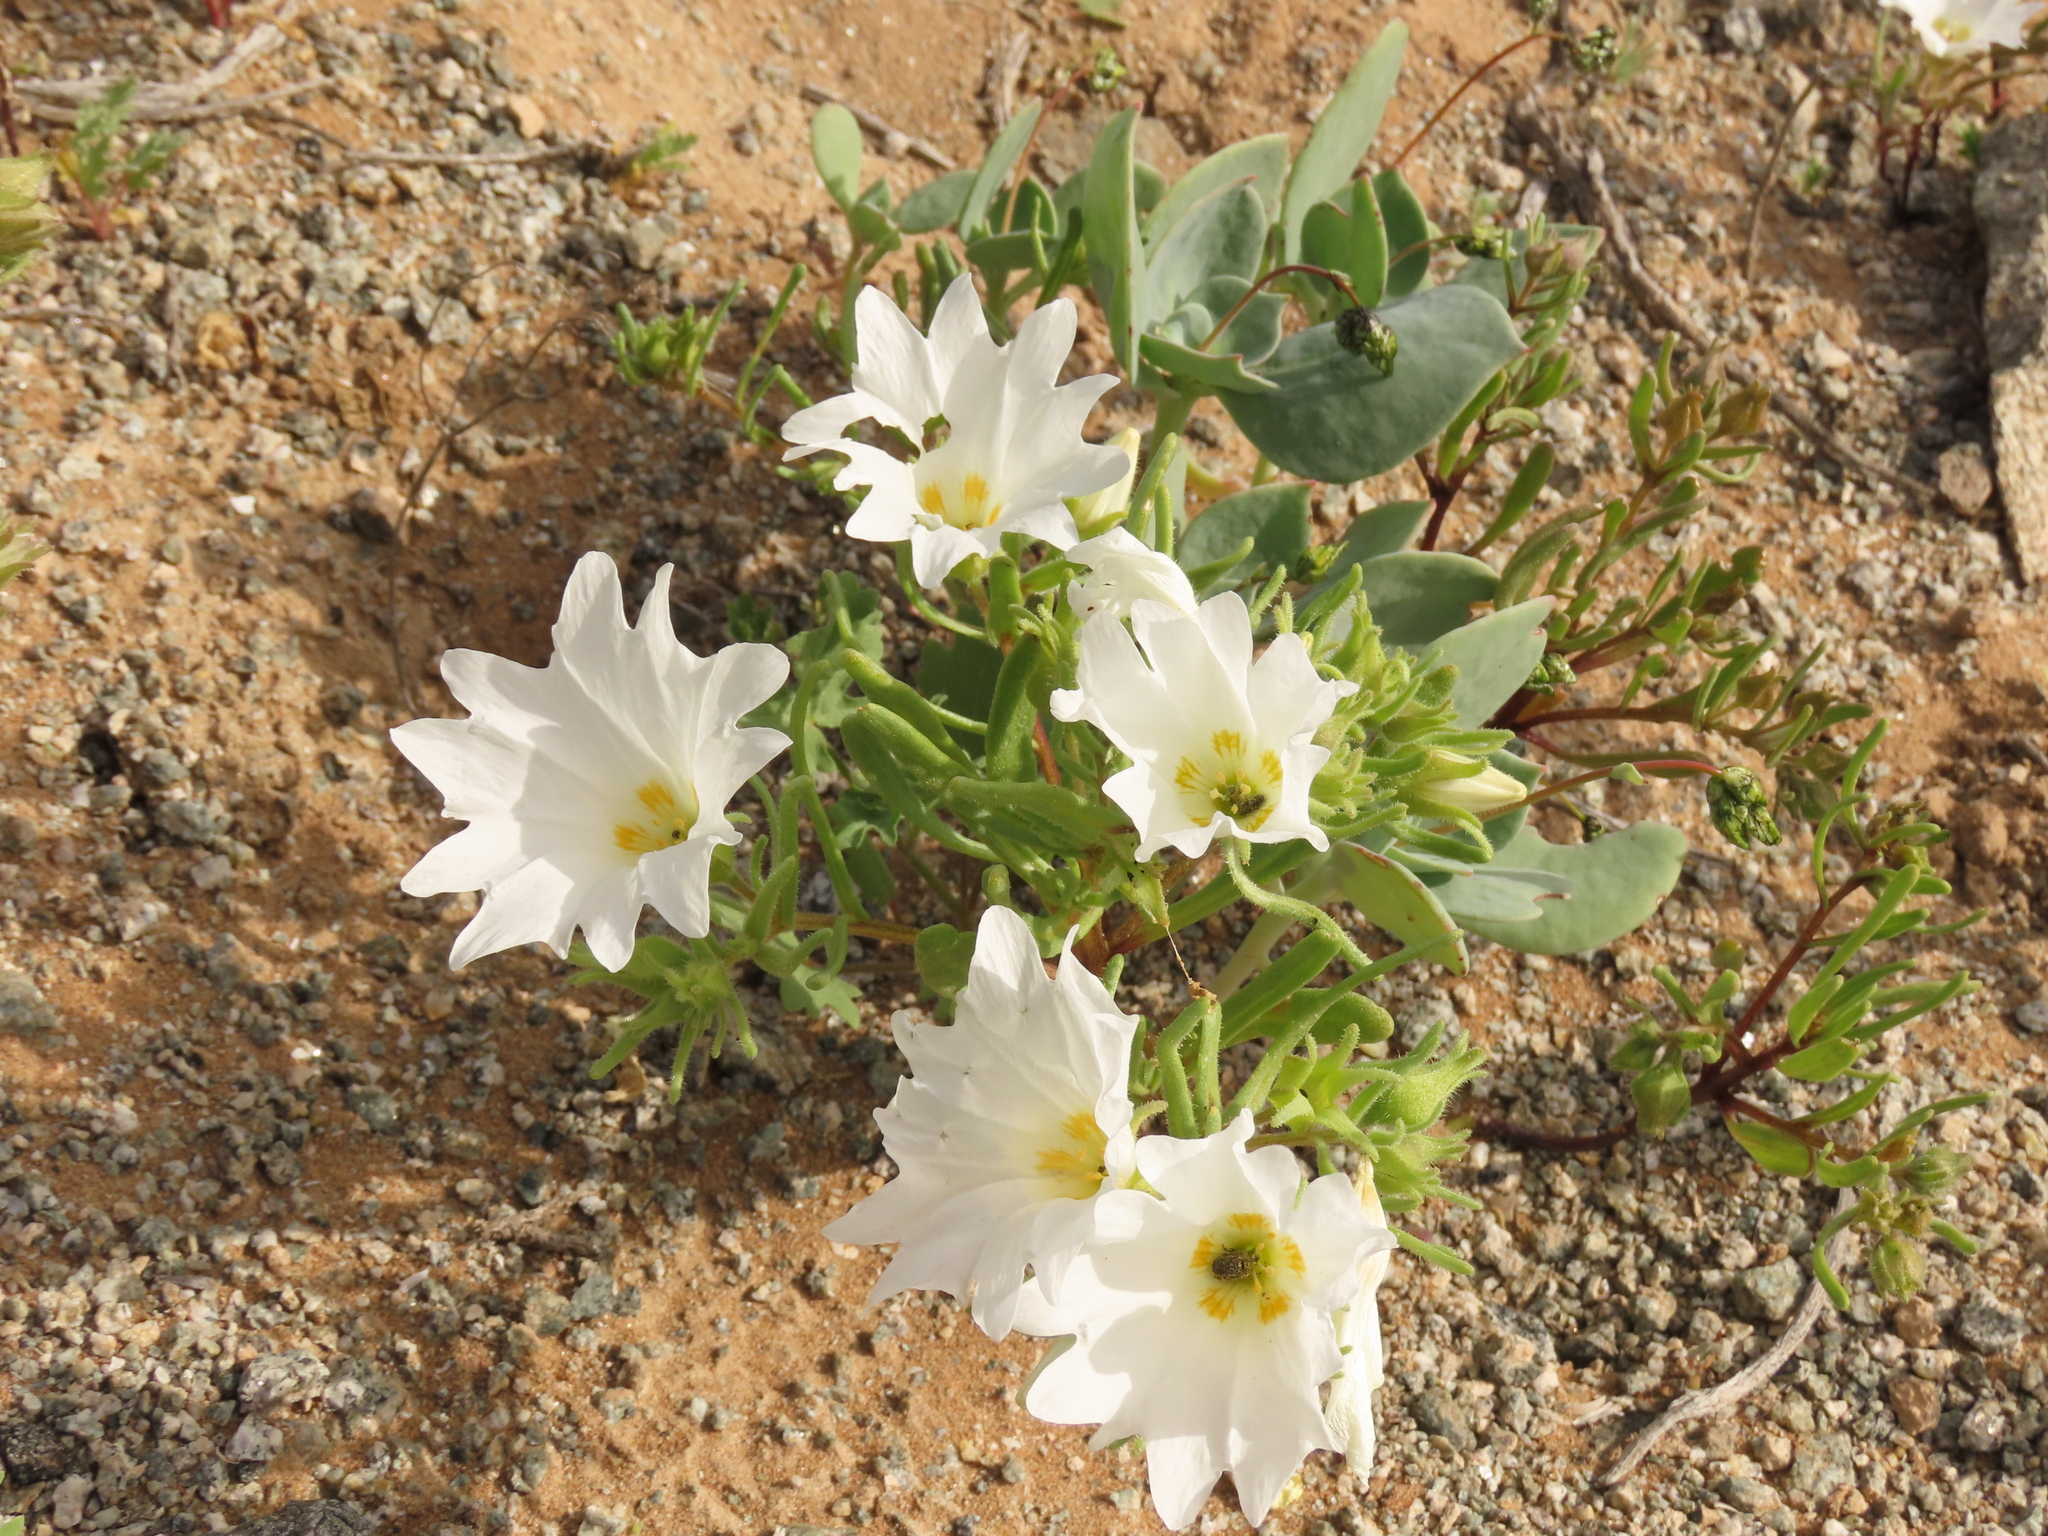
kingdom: Plantae
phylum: Tracheophyta
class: Magnoliopsida
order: Solanales
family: Solanaceae
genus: Nolana
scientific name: Nolana baccata
